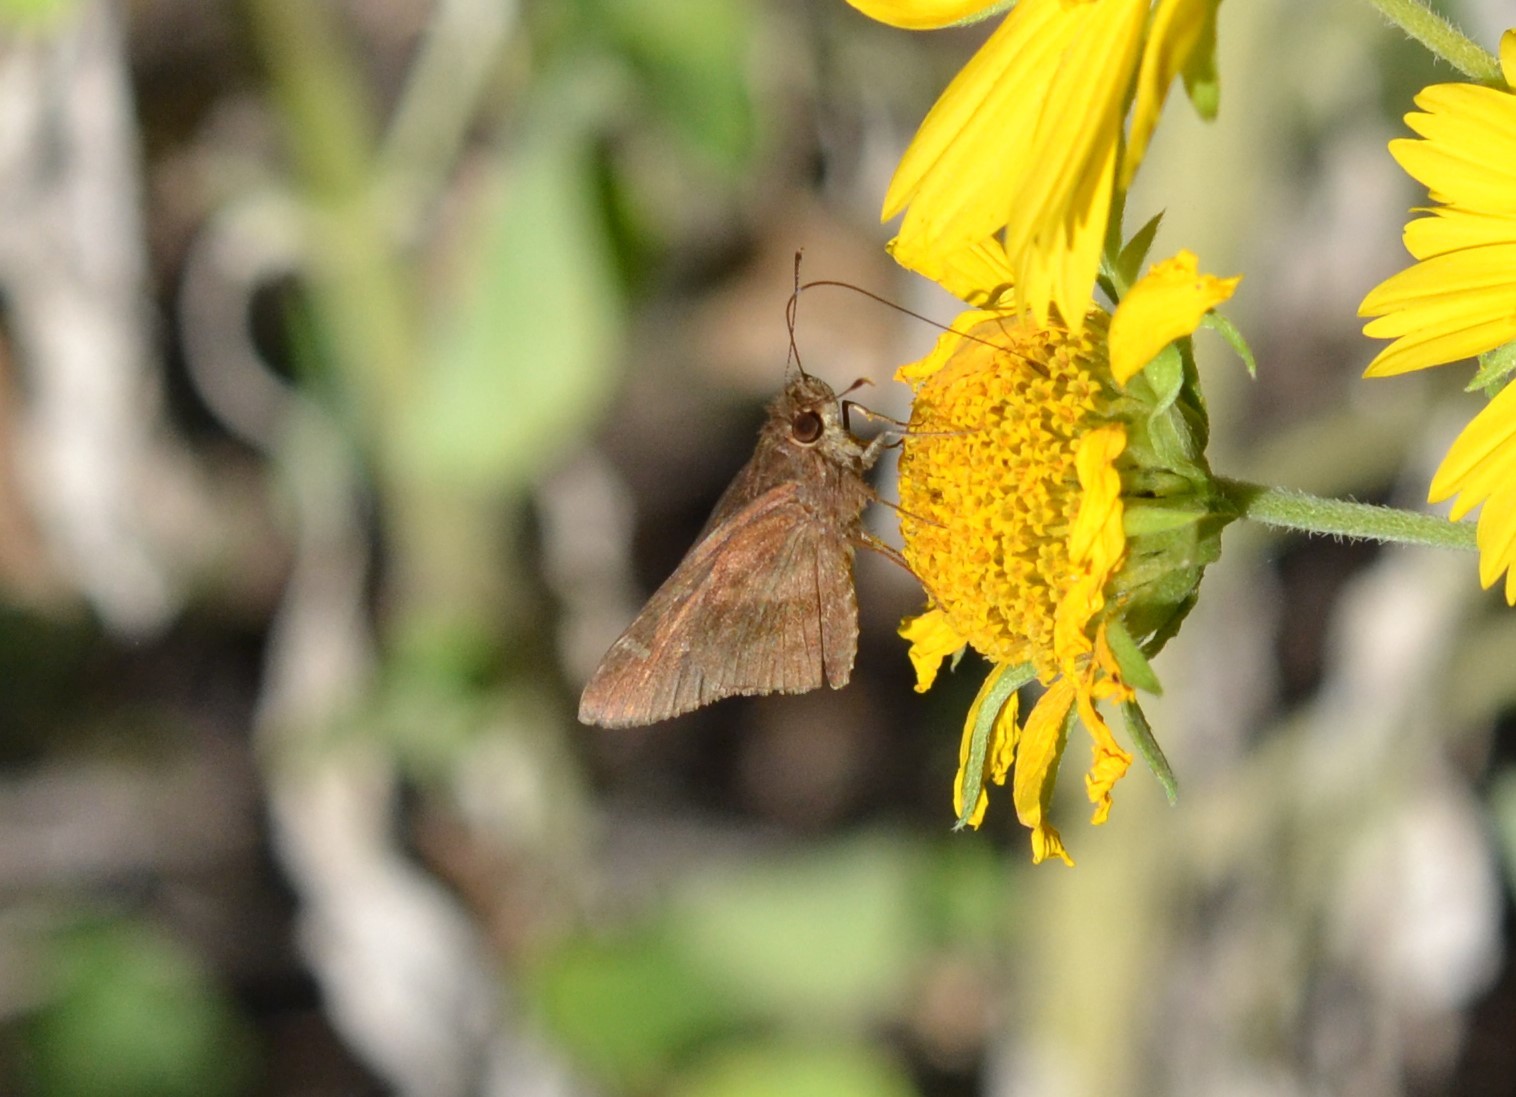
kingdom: Animalia
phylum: Arthropoda
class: Insecta
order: Lepidoptera
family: Hesperiidae
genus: Lerema
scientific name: Lerema accius
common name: Clouded skipper
